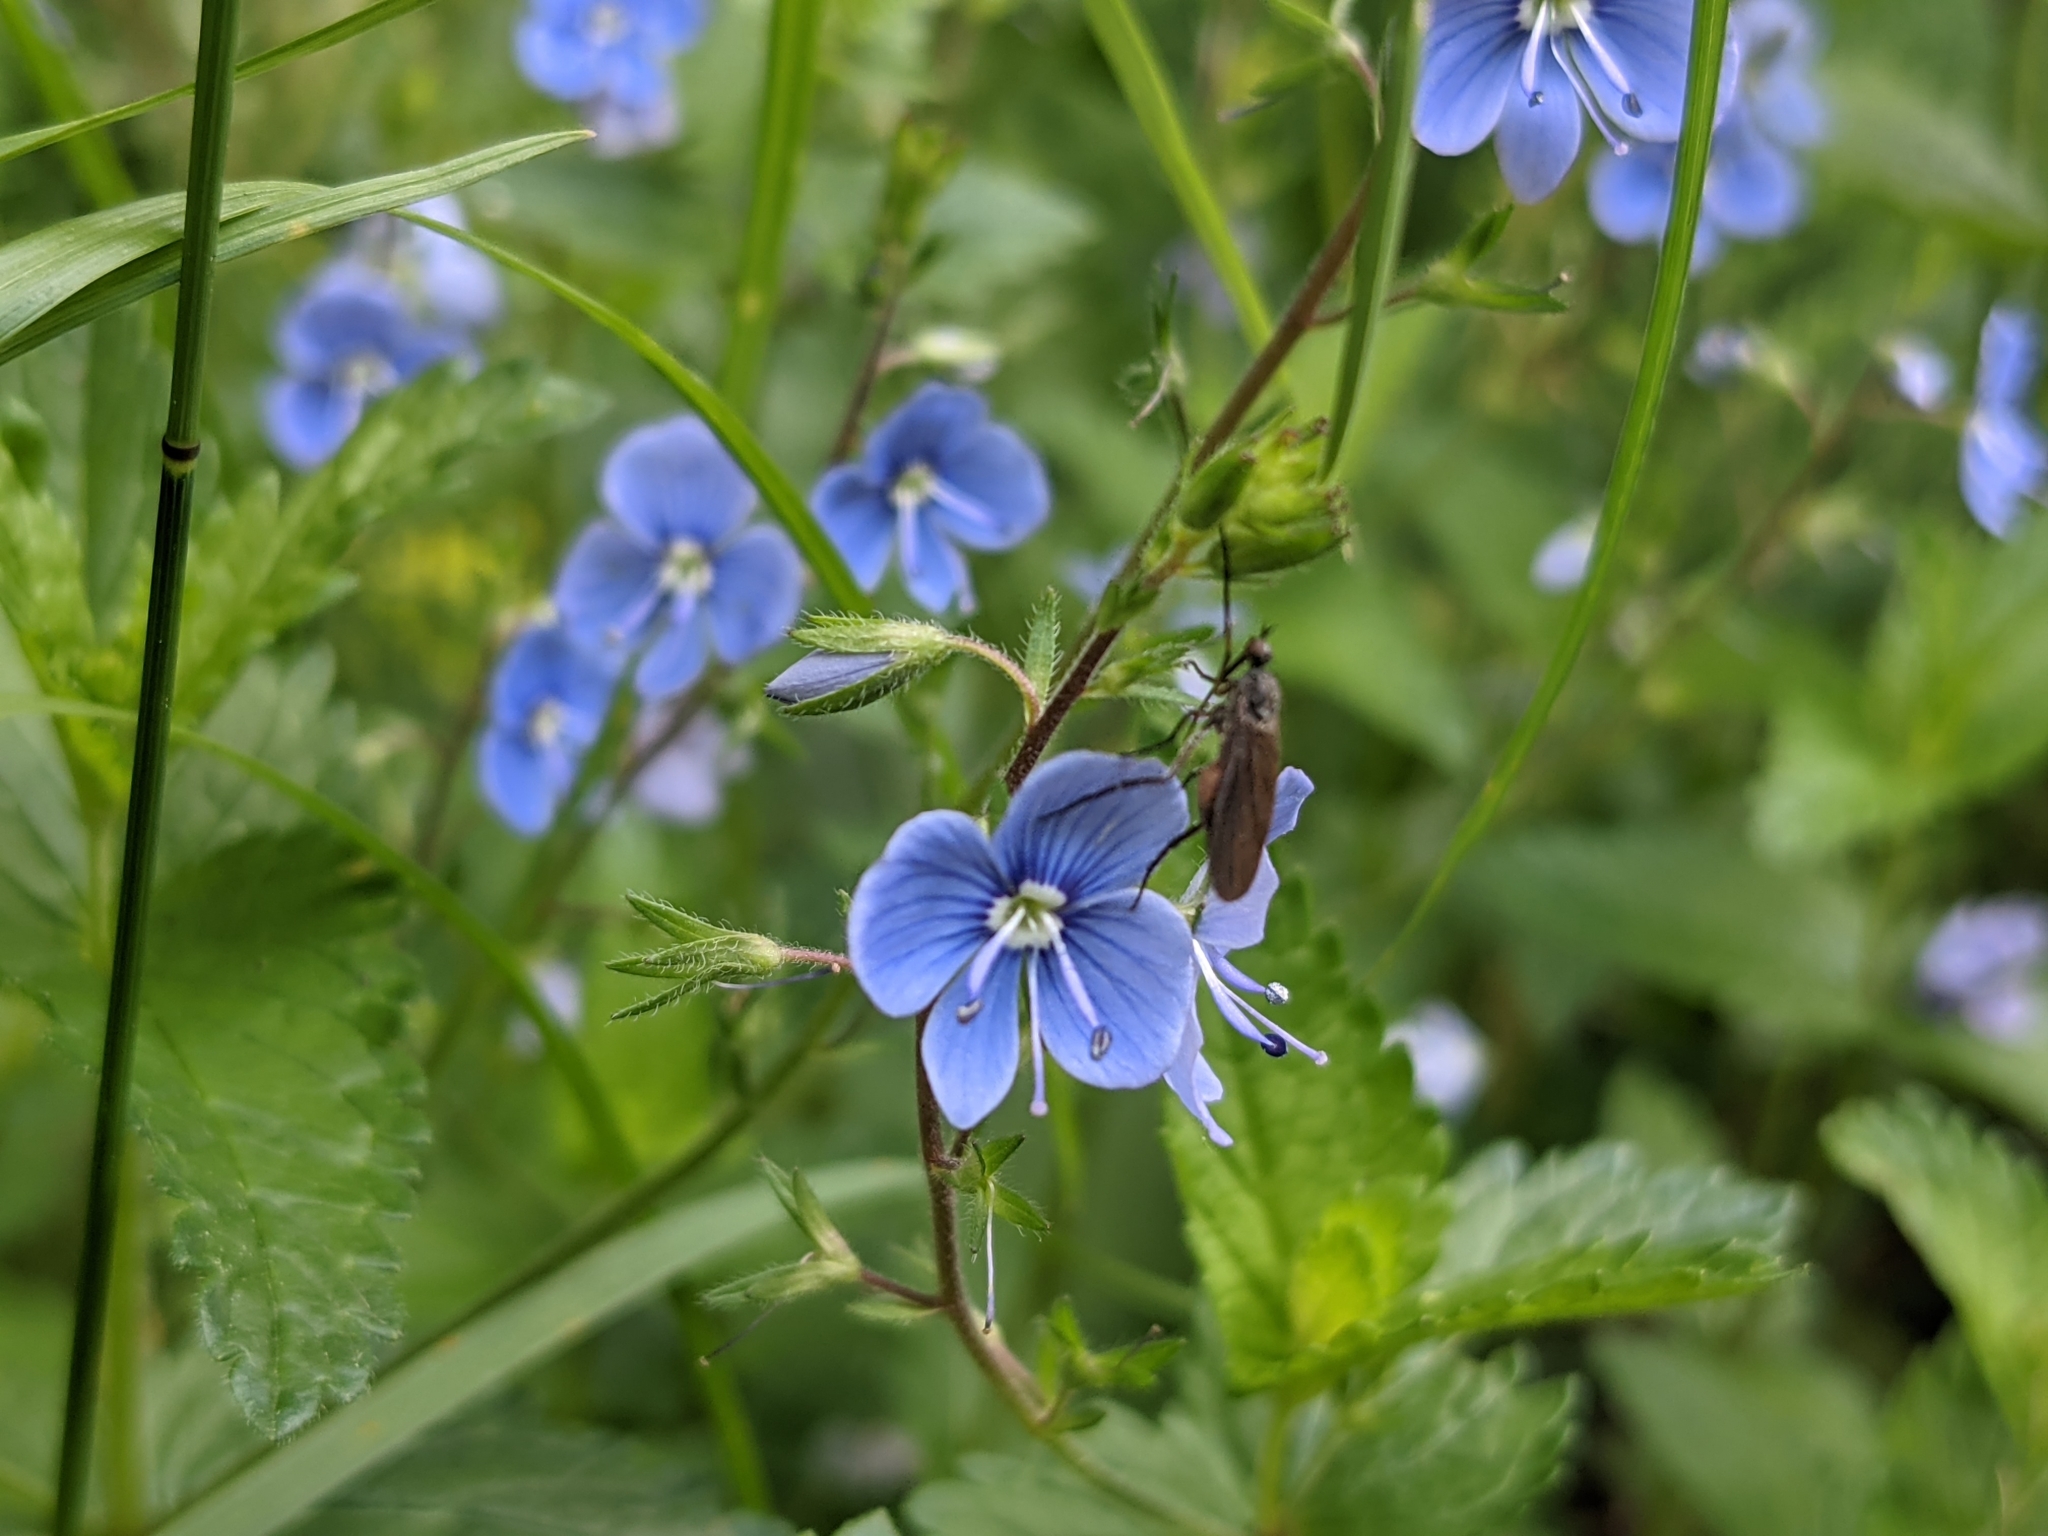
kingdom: Plantae
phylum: Tracheophyta
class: Magnoliopsida
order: Lamiales
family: Plantaginaceae
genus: Veronica
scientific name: Veronica chamaedrys
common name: Germander speedwell
